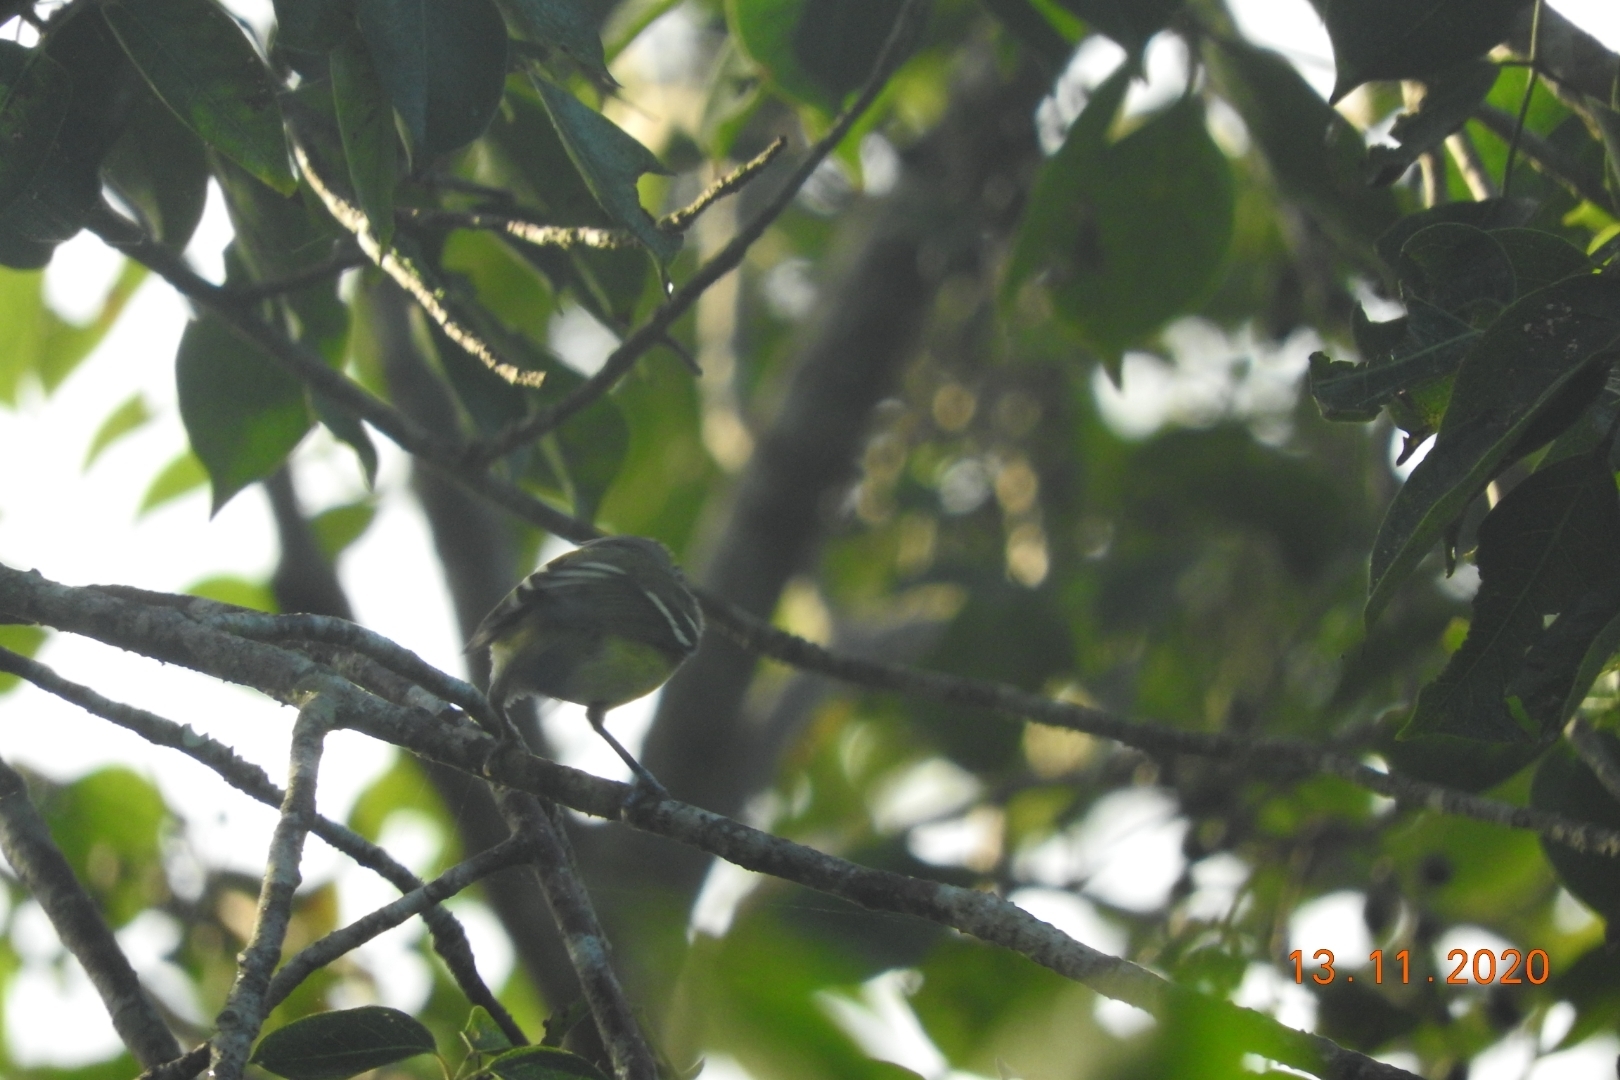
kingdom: Animalia
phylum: Chordata
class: Aves
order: Passeriformes
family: Vireonidae
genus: Vireo
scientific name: Vireo griseus
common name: White-eyed vireo
